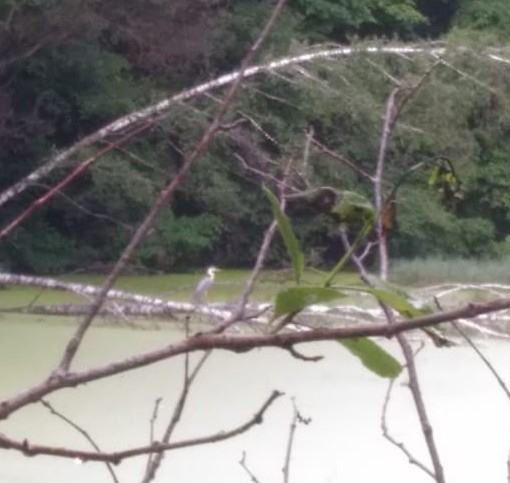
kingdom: Animalia
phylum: Chordata
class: Aves
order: Pelecaniformes
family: Ardeidae
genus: Ardea
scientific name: Ardea cinerea
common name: Grey heron
